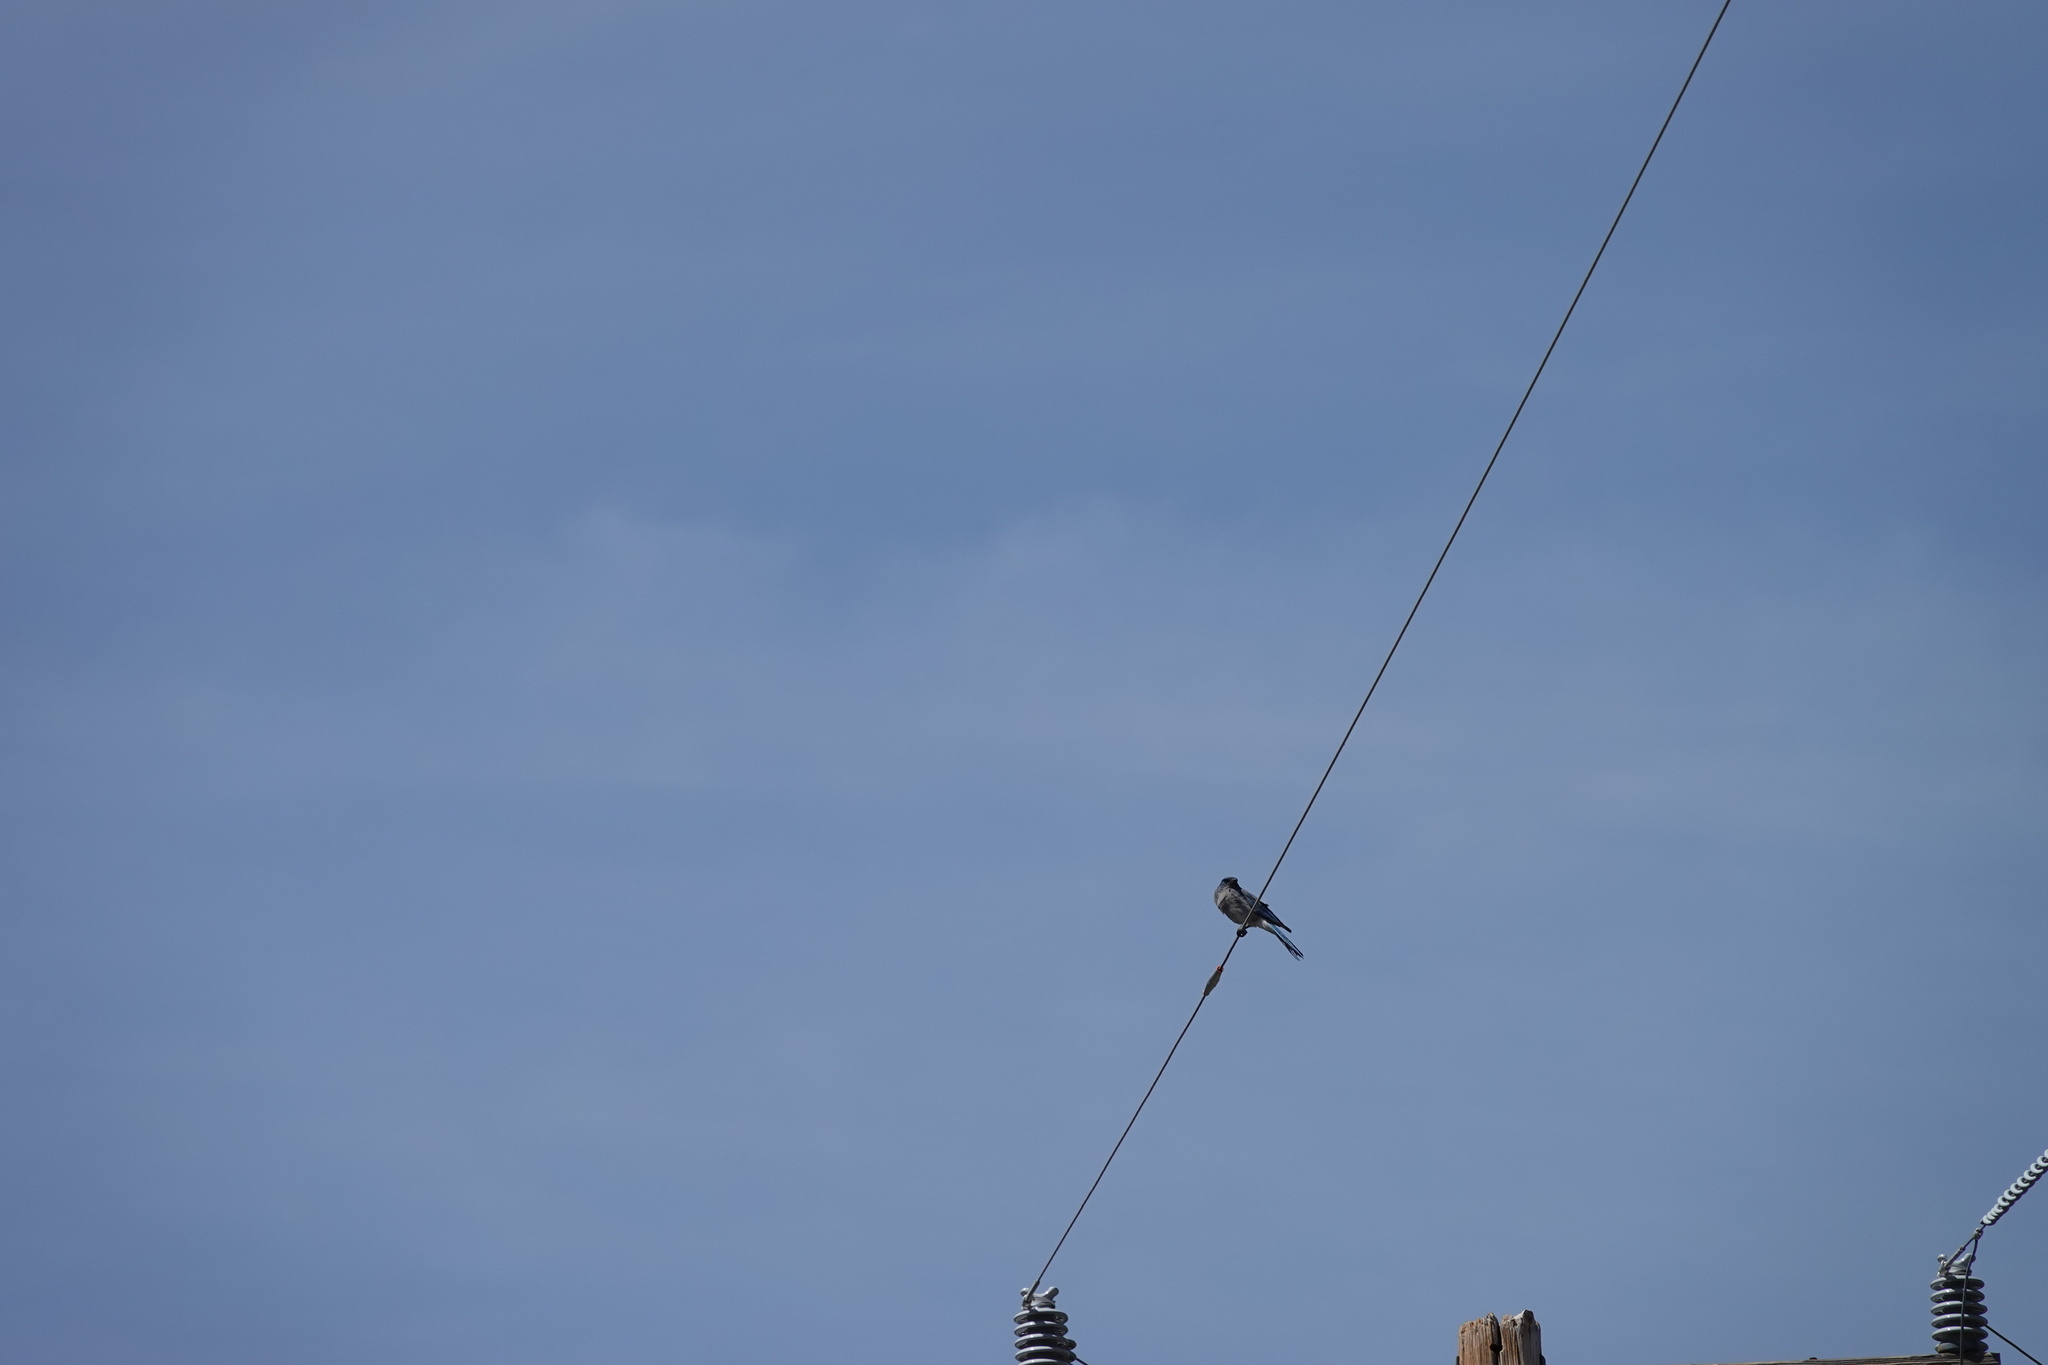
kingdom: Animalia
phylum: Chordata
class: Aves
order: Passeriformes
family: Corvidae
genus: Aphelocoma
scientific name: Aphelocoma wollweberi
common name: Mexican jay
